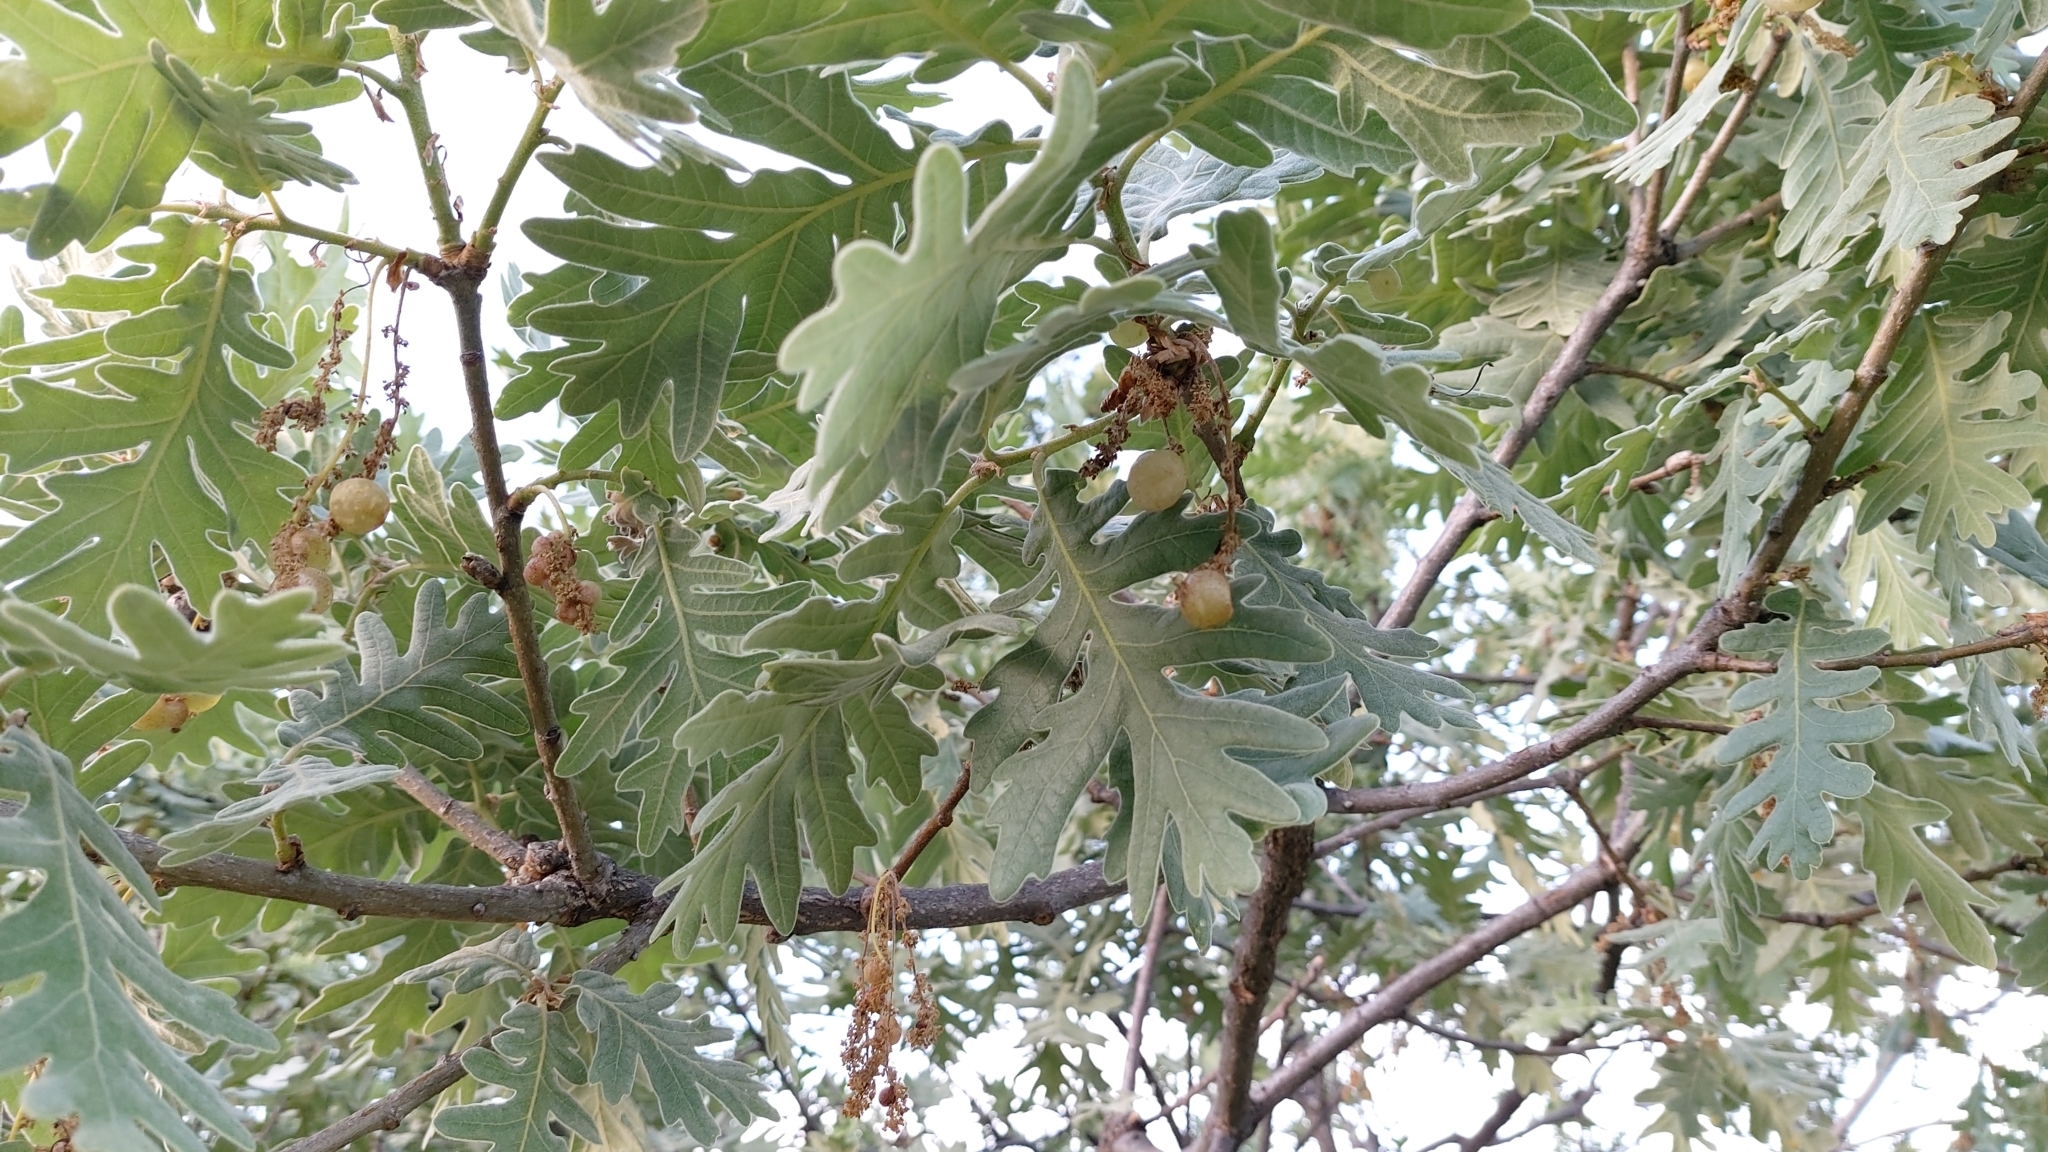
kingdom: Animalia
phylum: Arthropoda
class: Insecta
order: Hymenoptera
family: Cynipidae
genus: Neuroterus
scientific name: Neuroterus quercusbaccarum
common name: Common spangle gall
